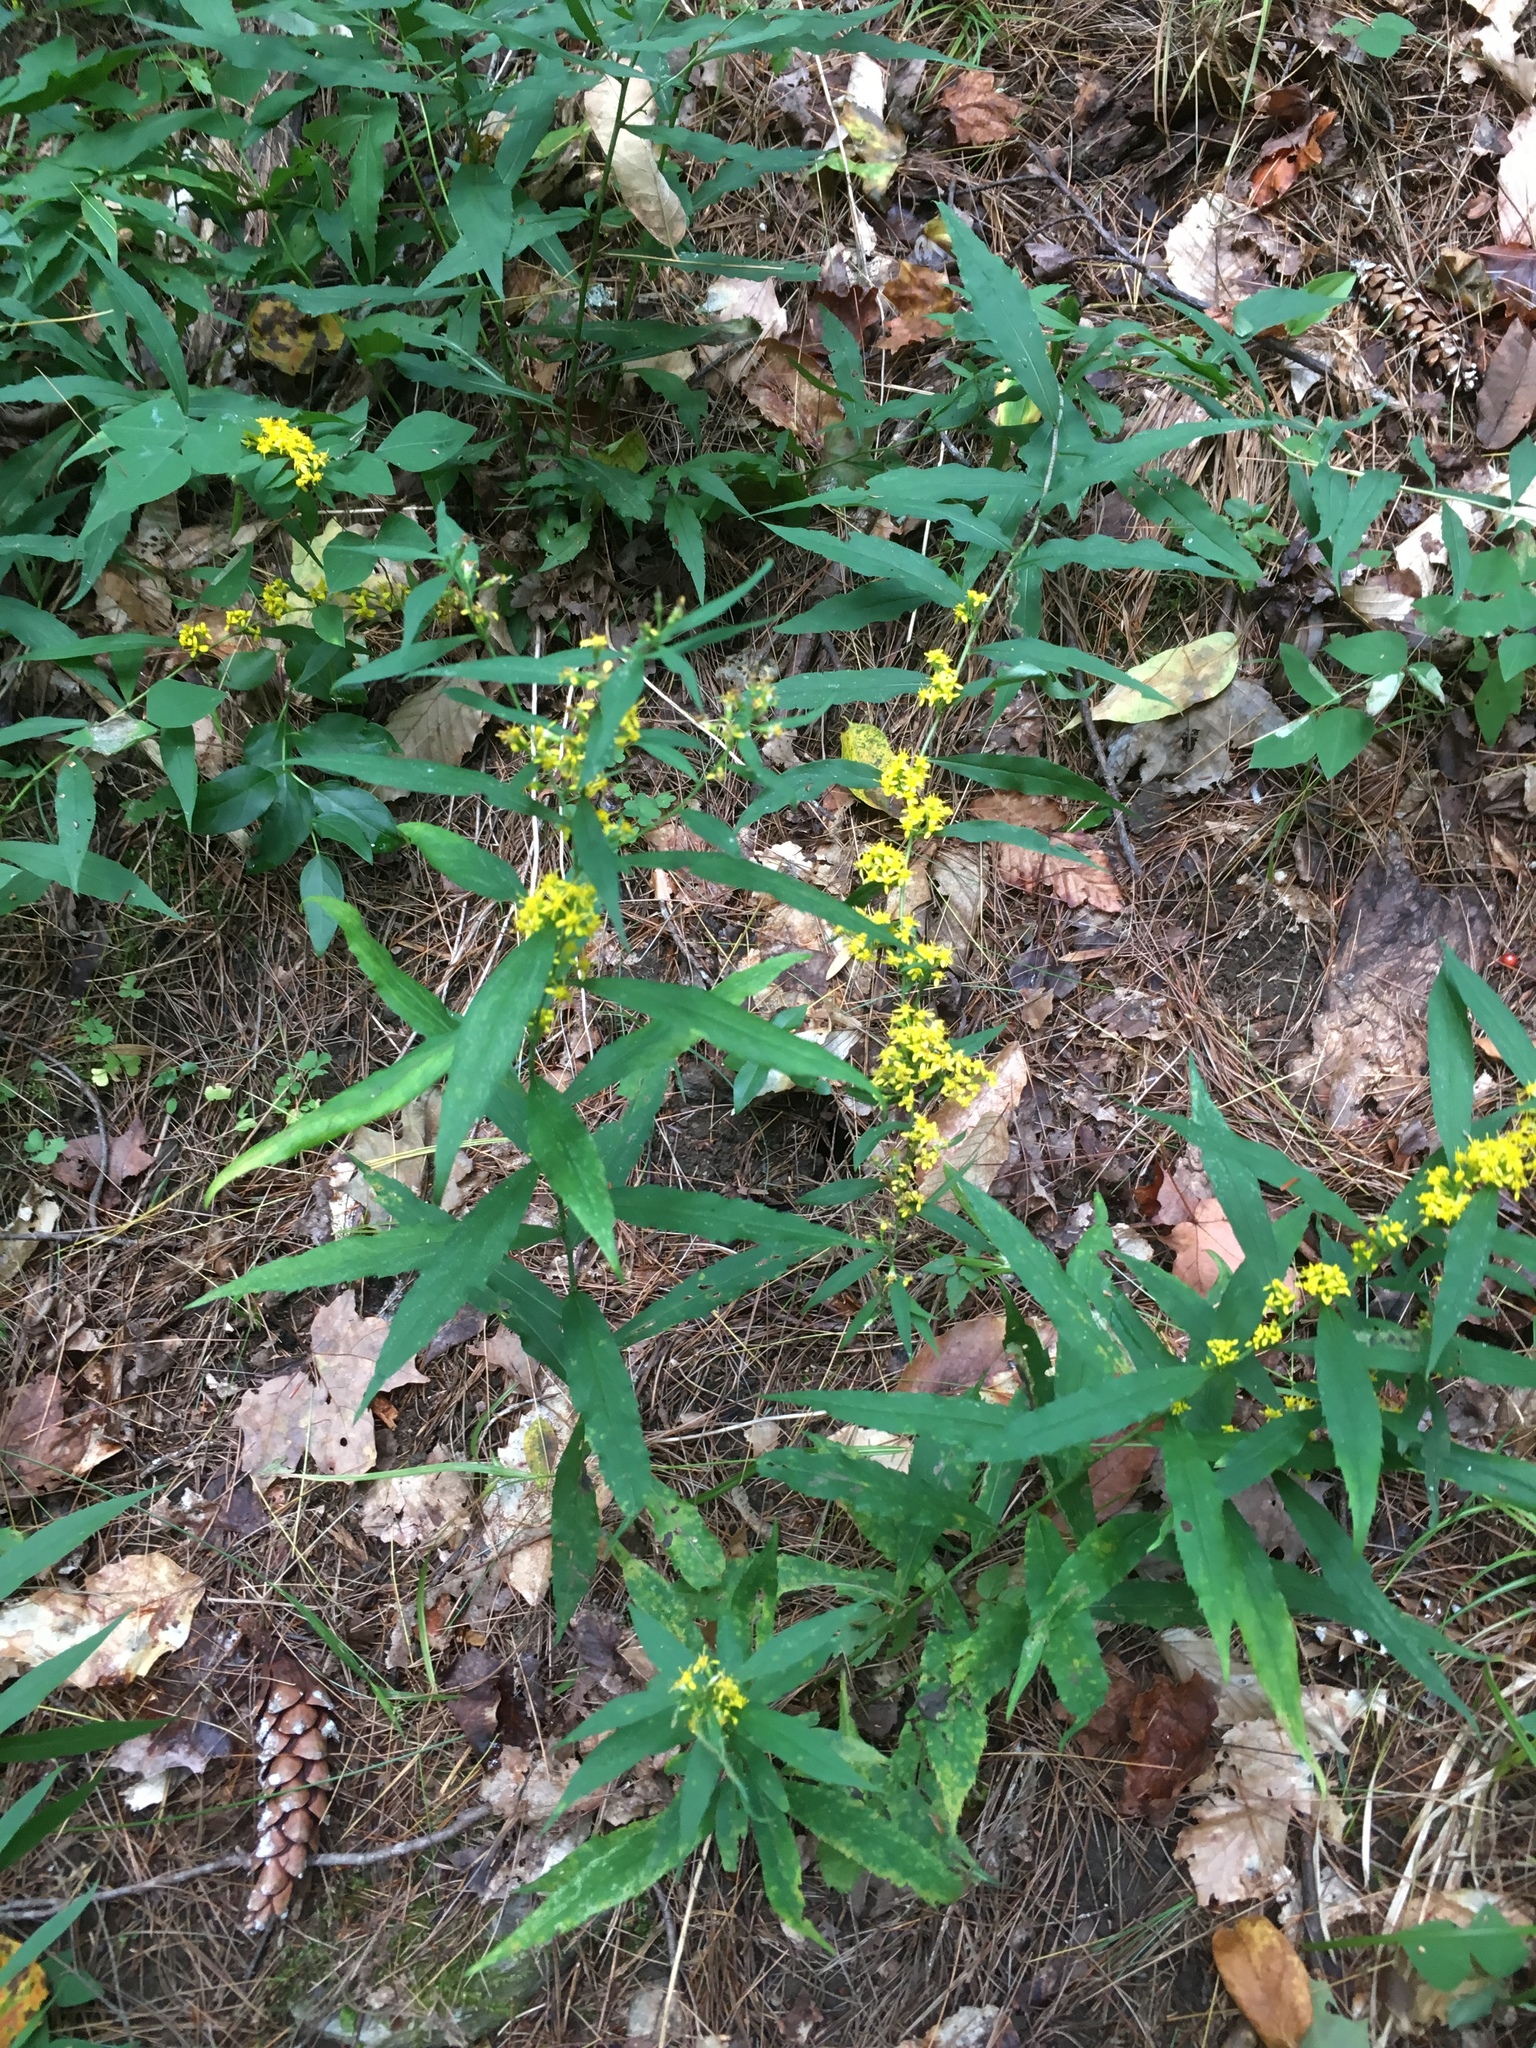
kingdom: Plantae
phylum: Tracheophyta
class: Magnoliopsida
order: Asterales
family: Asteraceae
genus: Solidago
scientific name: Solidago caesia
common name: Woodland goldenrod
